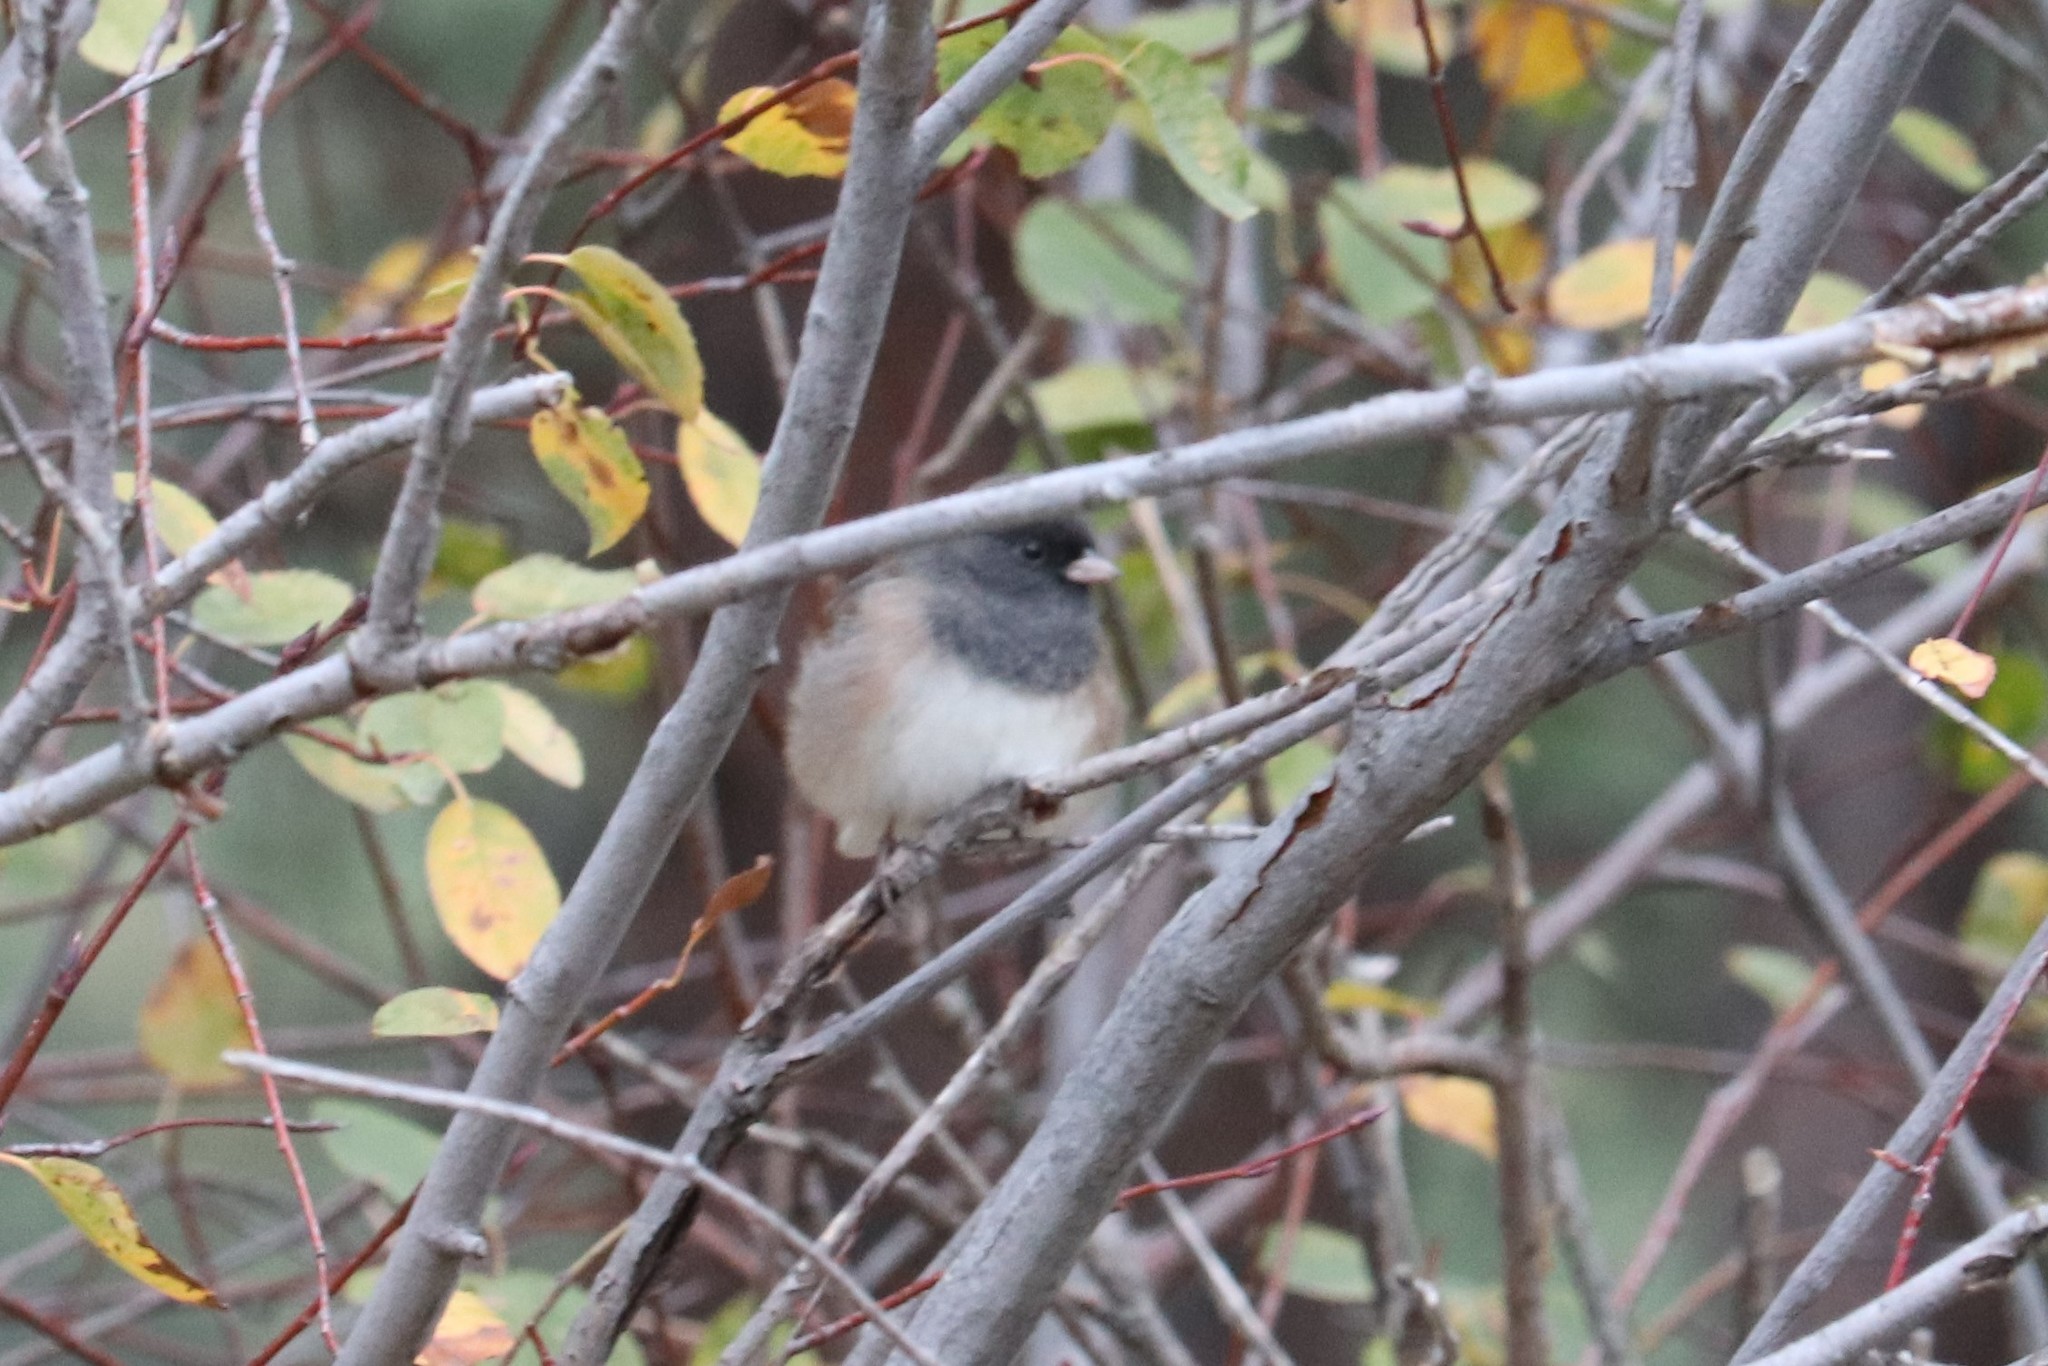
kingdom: Animalia
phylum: Chordata
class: Aves
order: Passeriformes
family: Passerellidae
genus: Junco
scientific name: Junco hyemalis
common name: Dark-eyed junco
